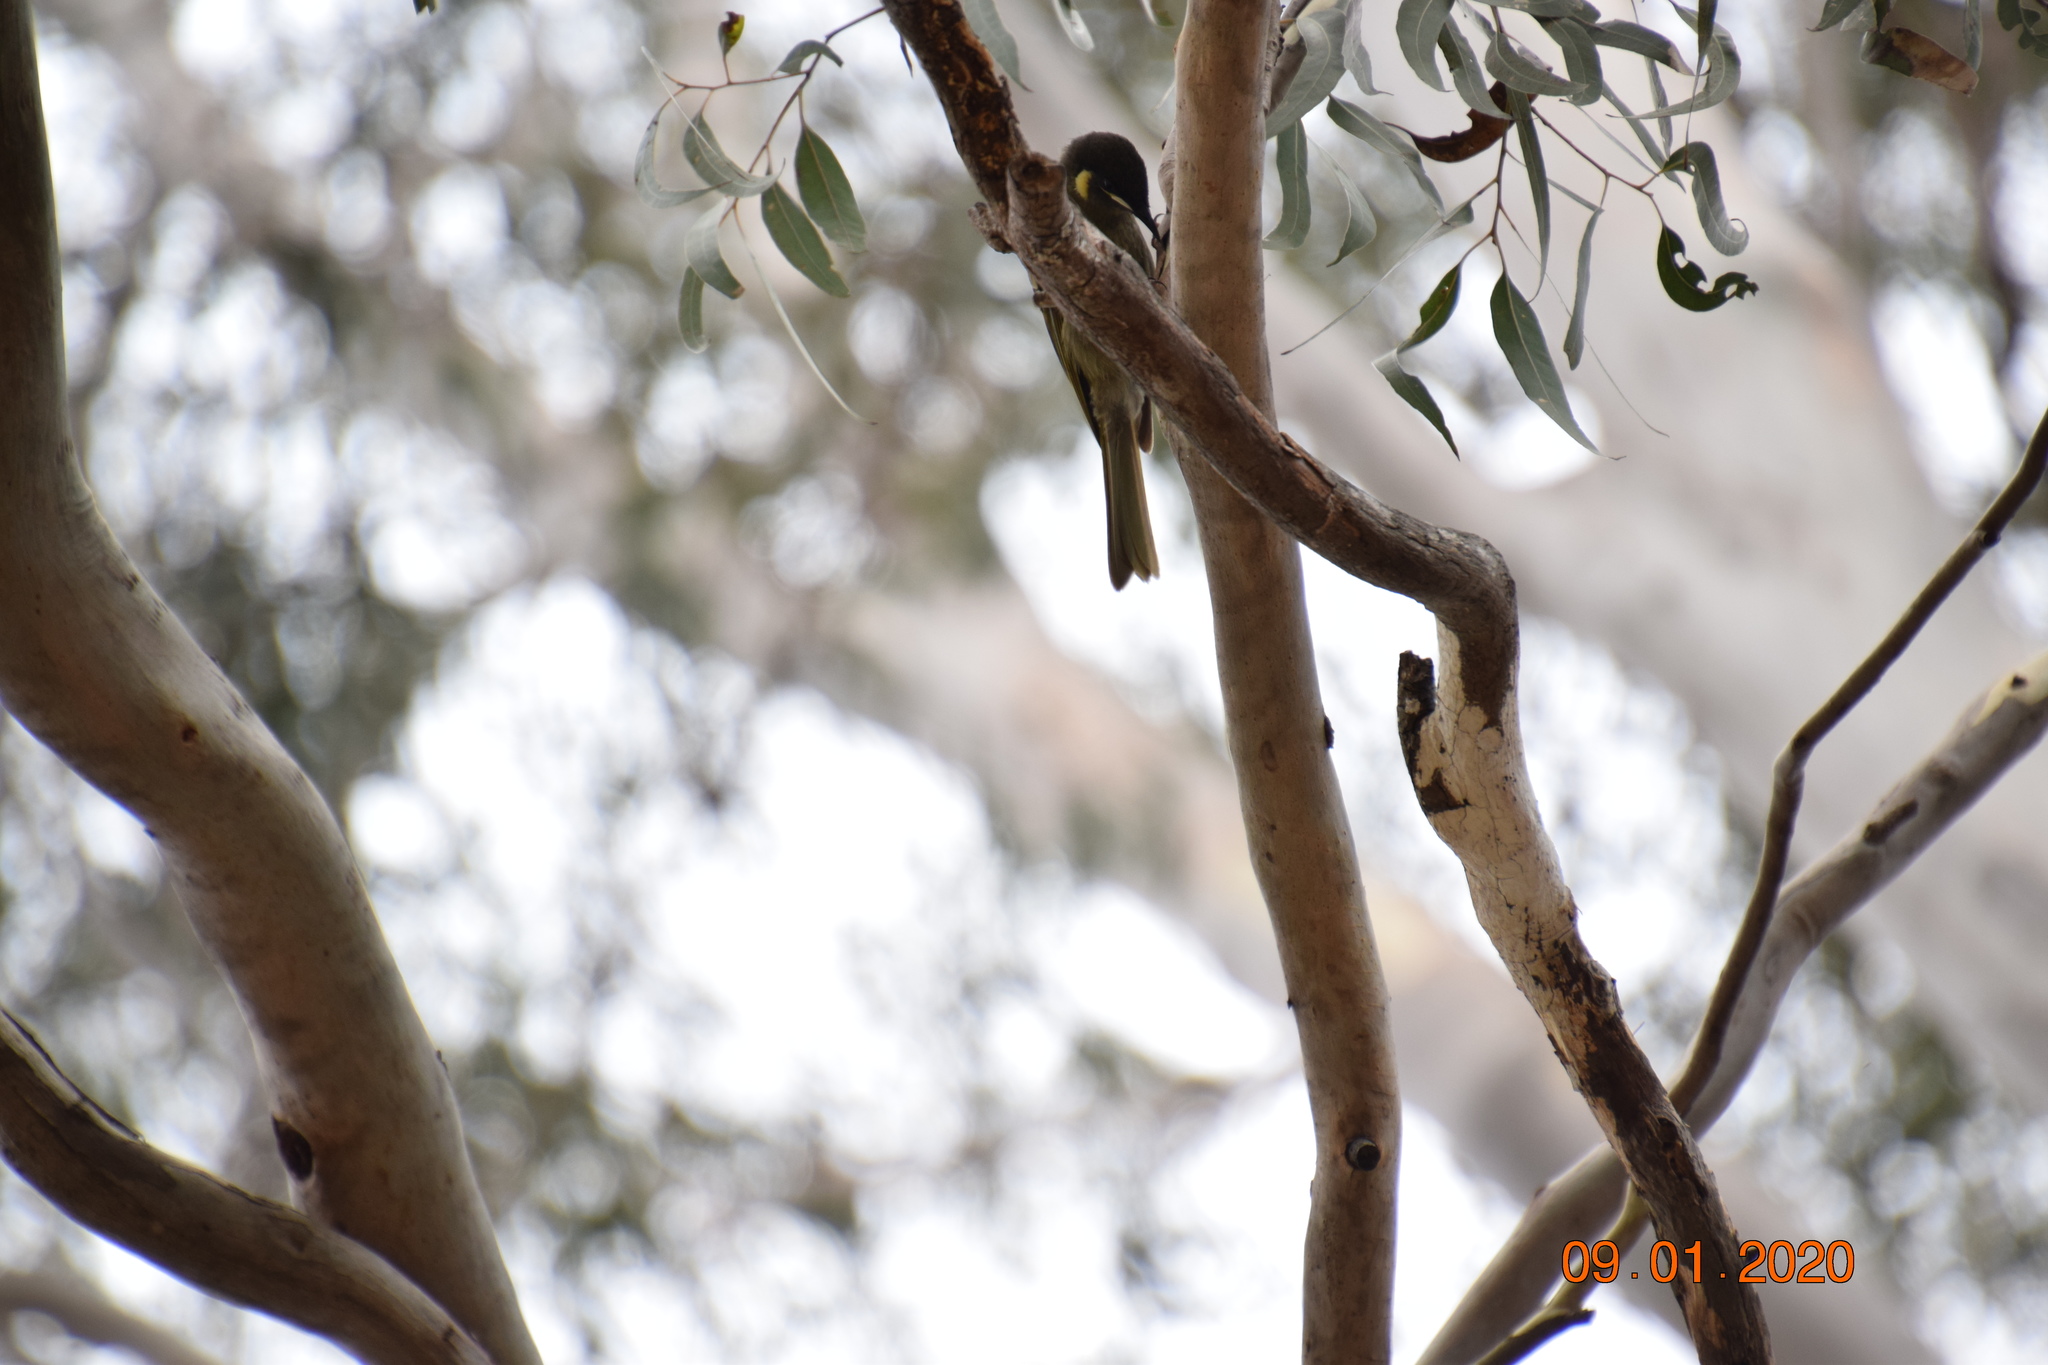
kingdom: Animalia
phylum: Chordata
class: Aves
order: Passeriformes
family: Meliphagidae
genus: Meliphaga
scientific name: Meliphaga lewinii
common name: Lewin's honeyeater
